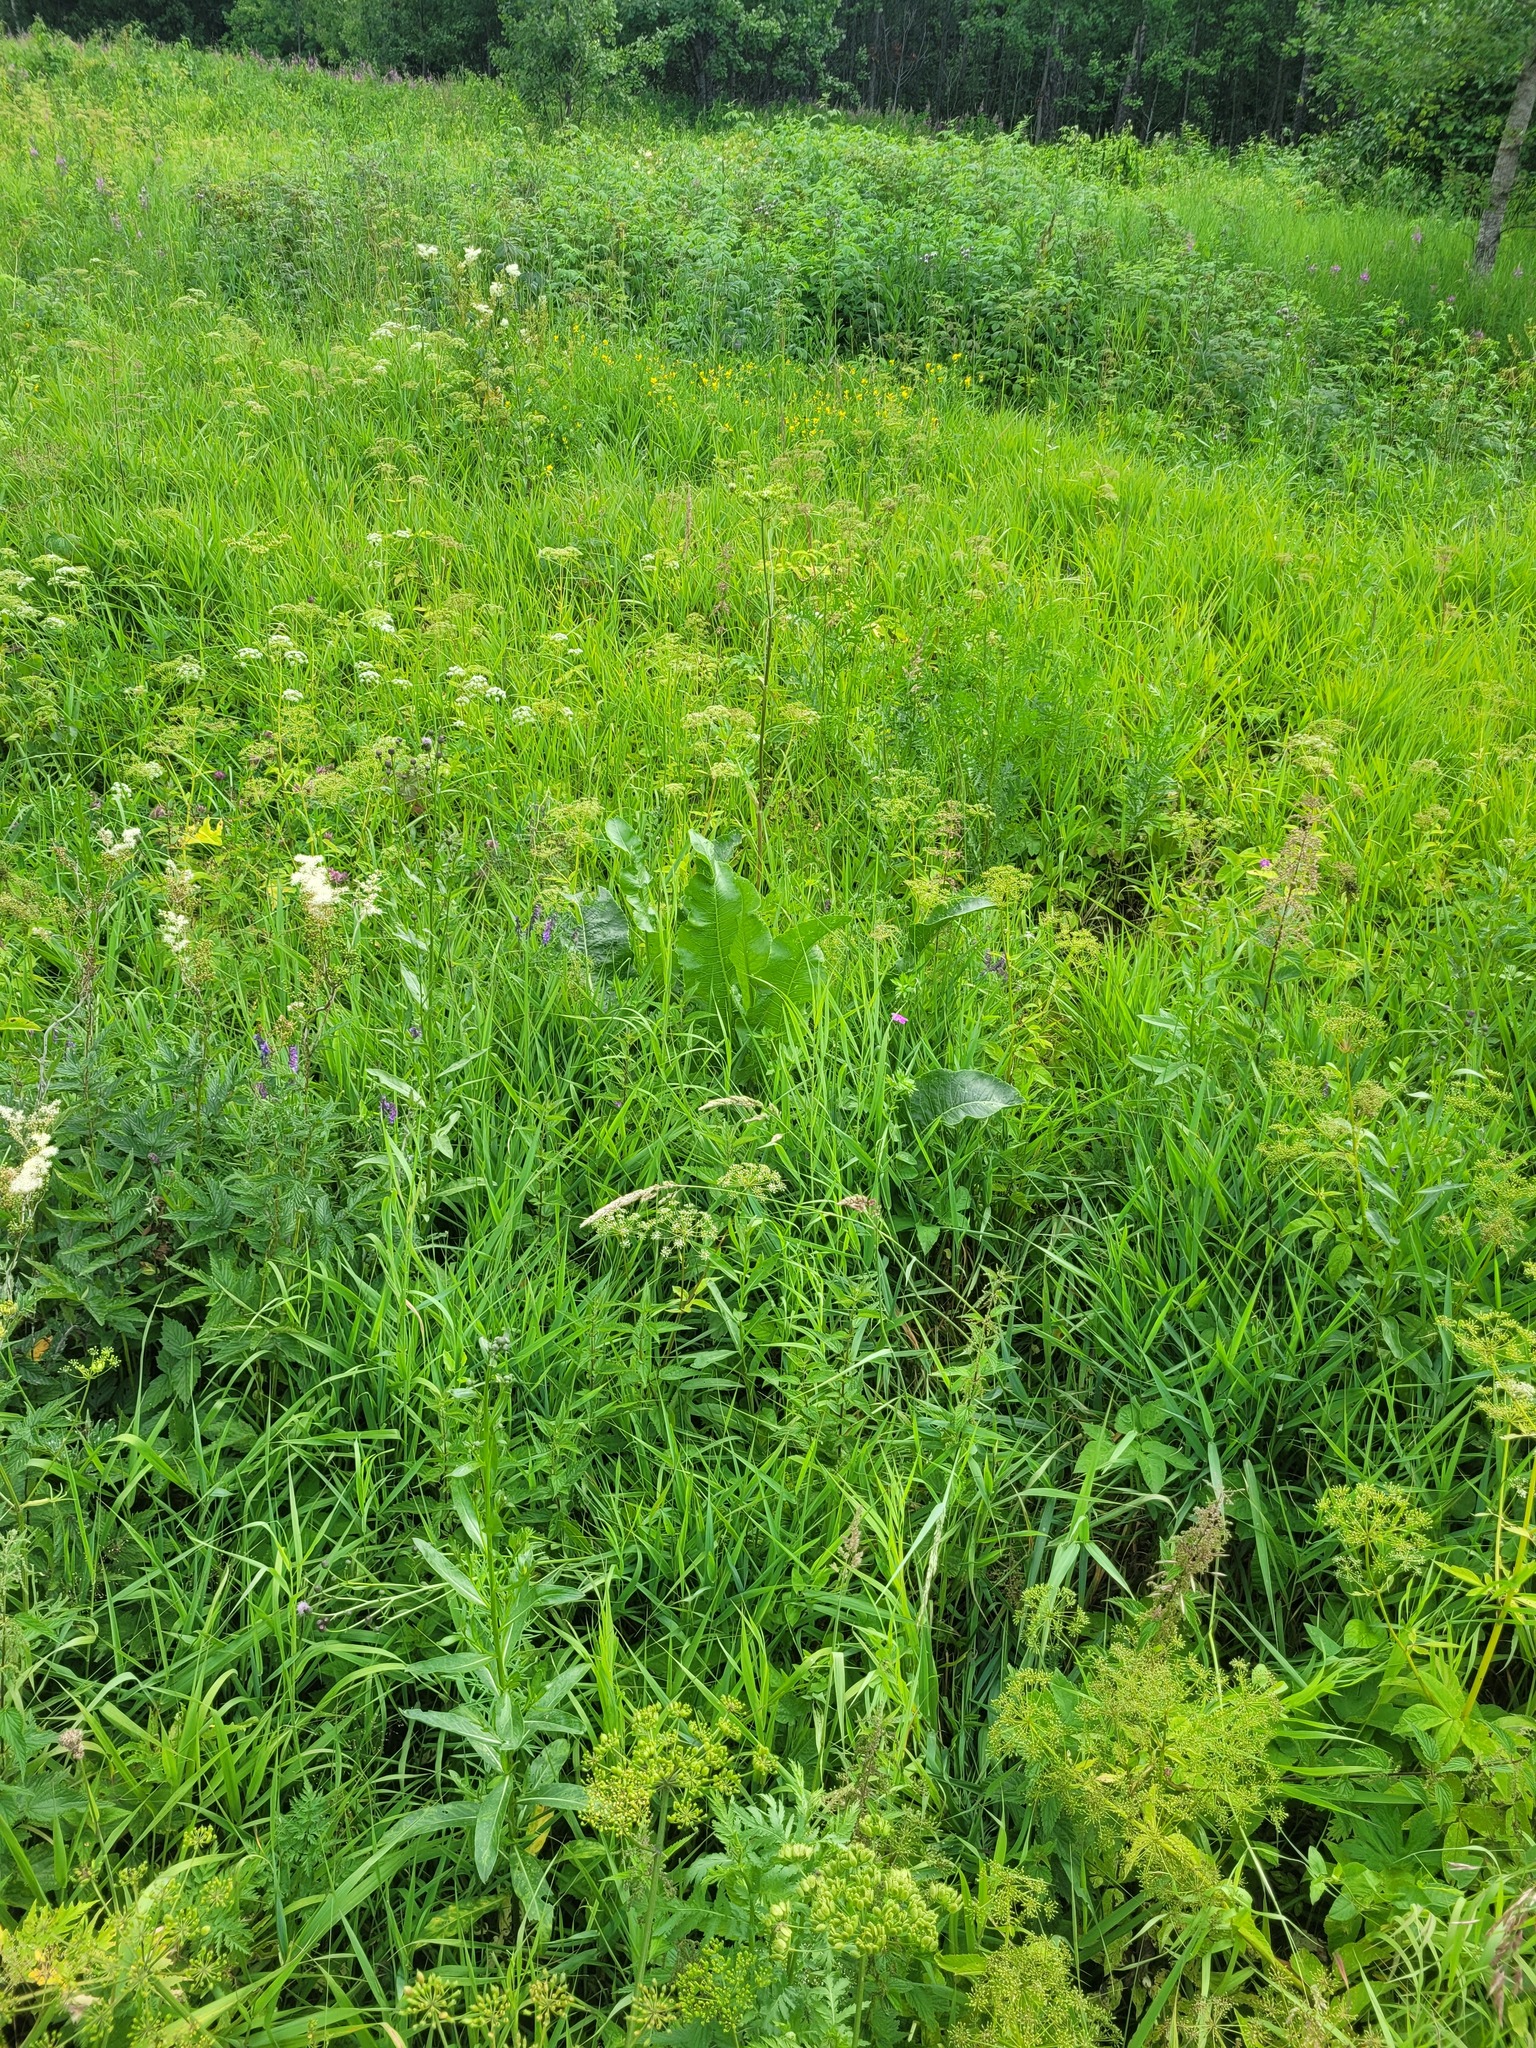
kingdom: Plantae
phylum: Tracheophyta
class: Magnoliopsida
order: Brassicales
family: Brassicaceae
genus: Armoracia
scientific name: Armoracia rusticana
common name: Horseradish
